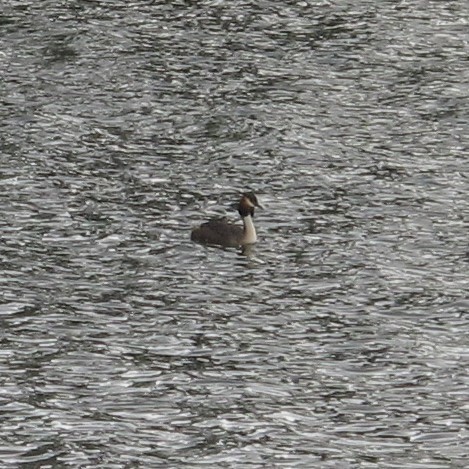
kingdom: Animalia
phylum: Chordata
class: Aves
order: Podicipediformes
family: Podicipedidae
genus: Podiceps
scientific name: Podiceps cristatus
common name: Great crested grebe
